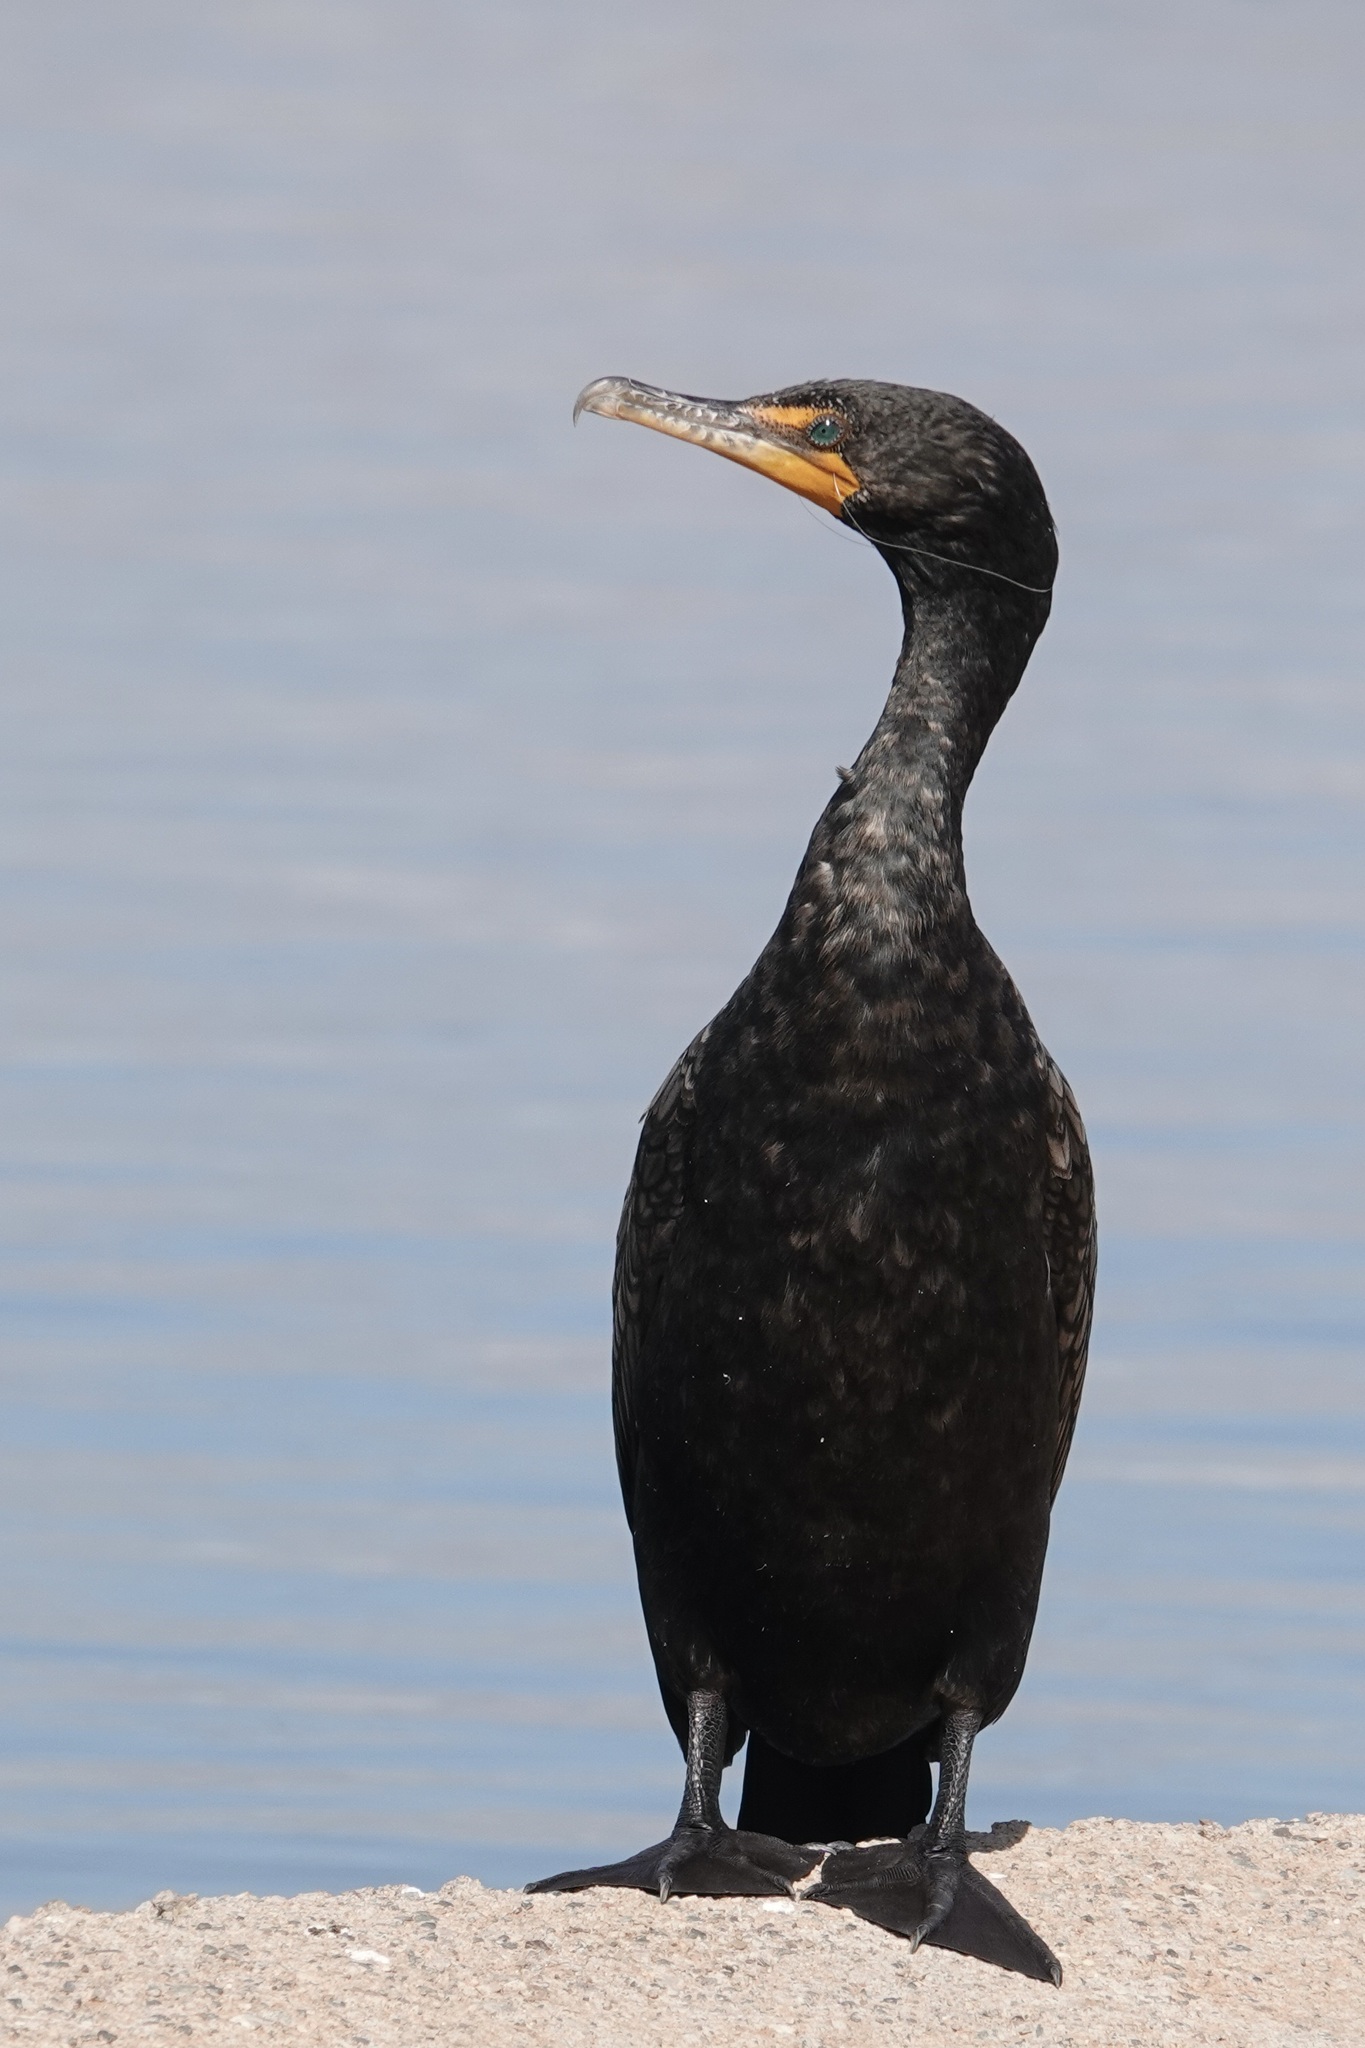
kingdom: Animalia
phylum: Chordata
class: Aves
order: Suliformes
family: Phalacrocoracidae
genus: Phalacrocorax
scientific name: Phalacrocorax auritus
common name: Double-crested cormorant
